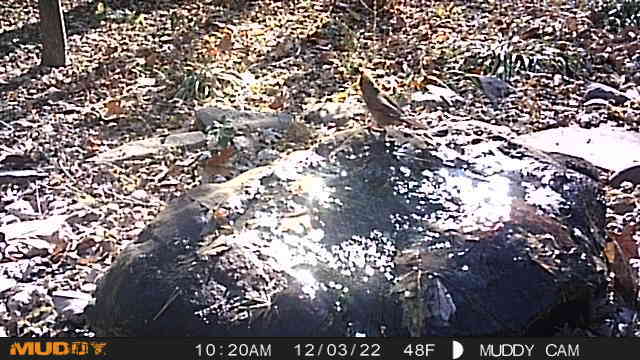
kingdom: Animalia
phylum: Chordata
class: Aves
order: Passeriformes
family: Cardinalidae
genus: Cardinalis
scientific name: Cardinalis cardinalis
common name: Northern cardinal
